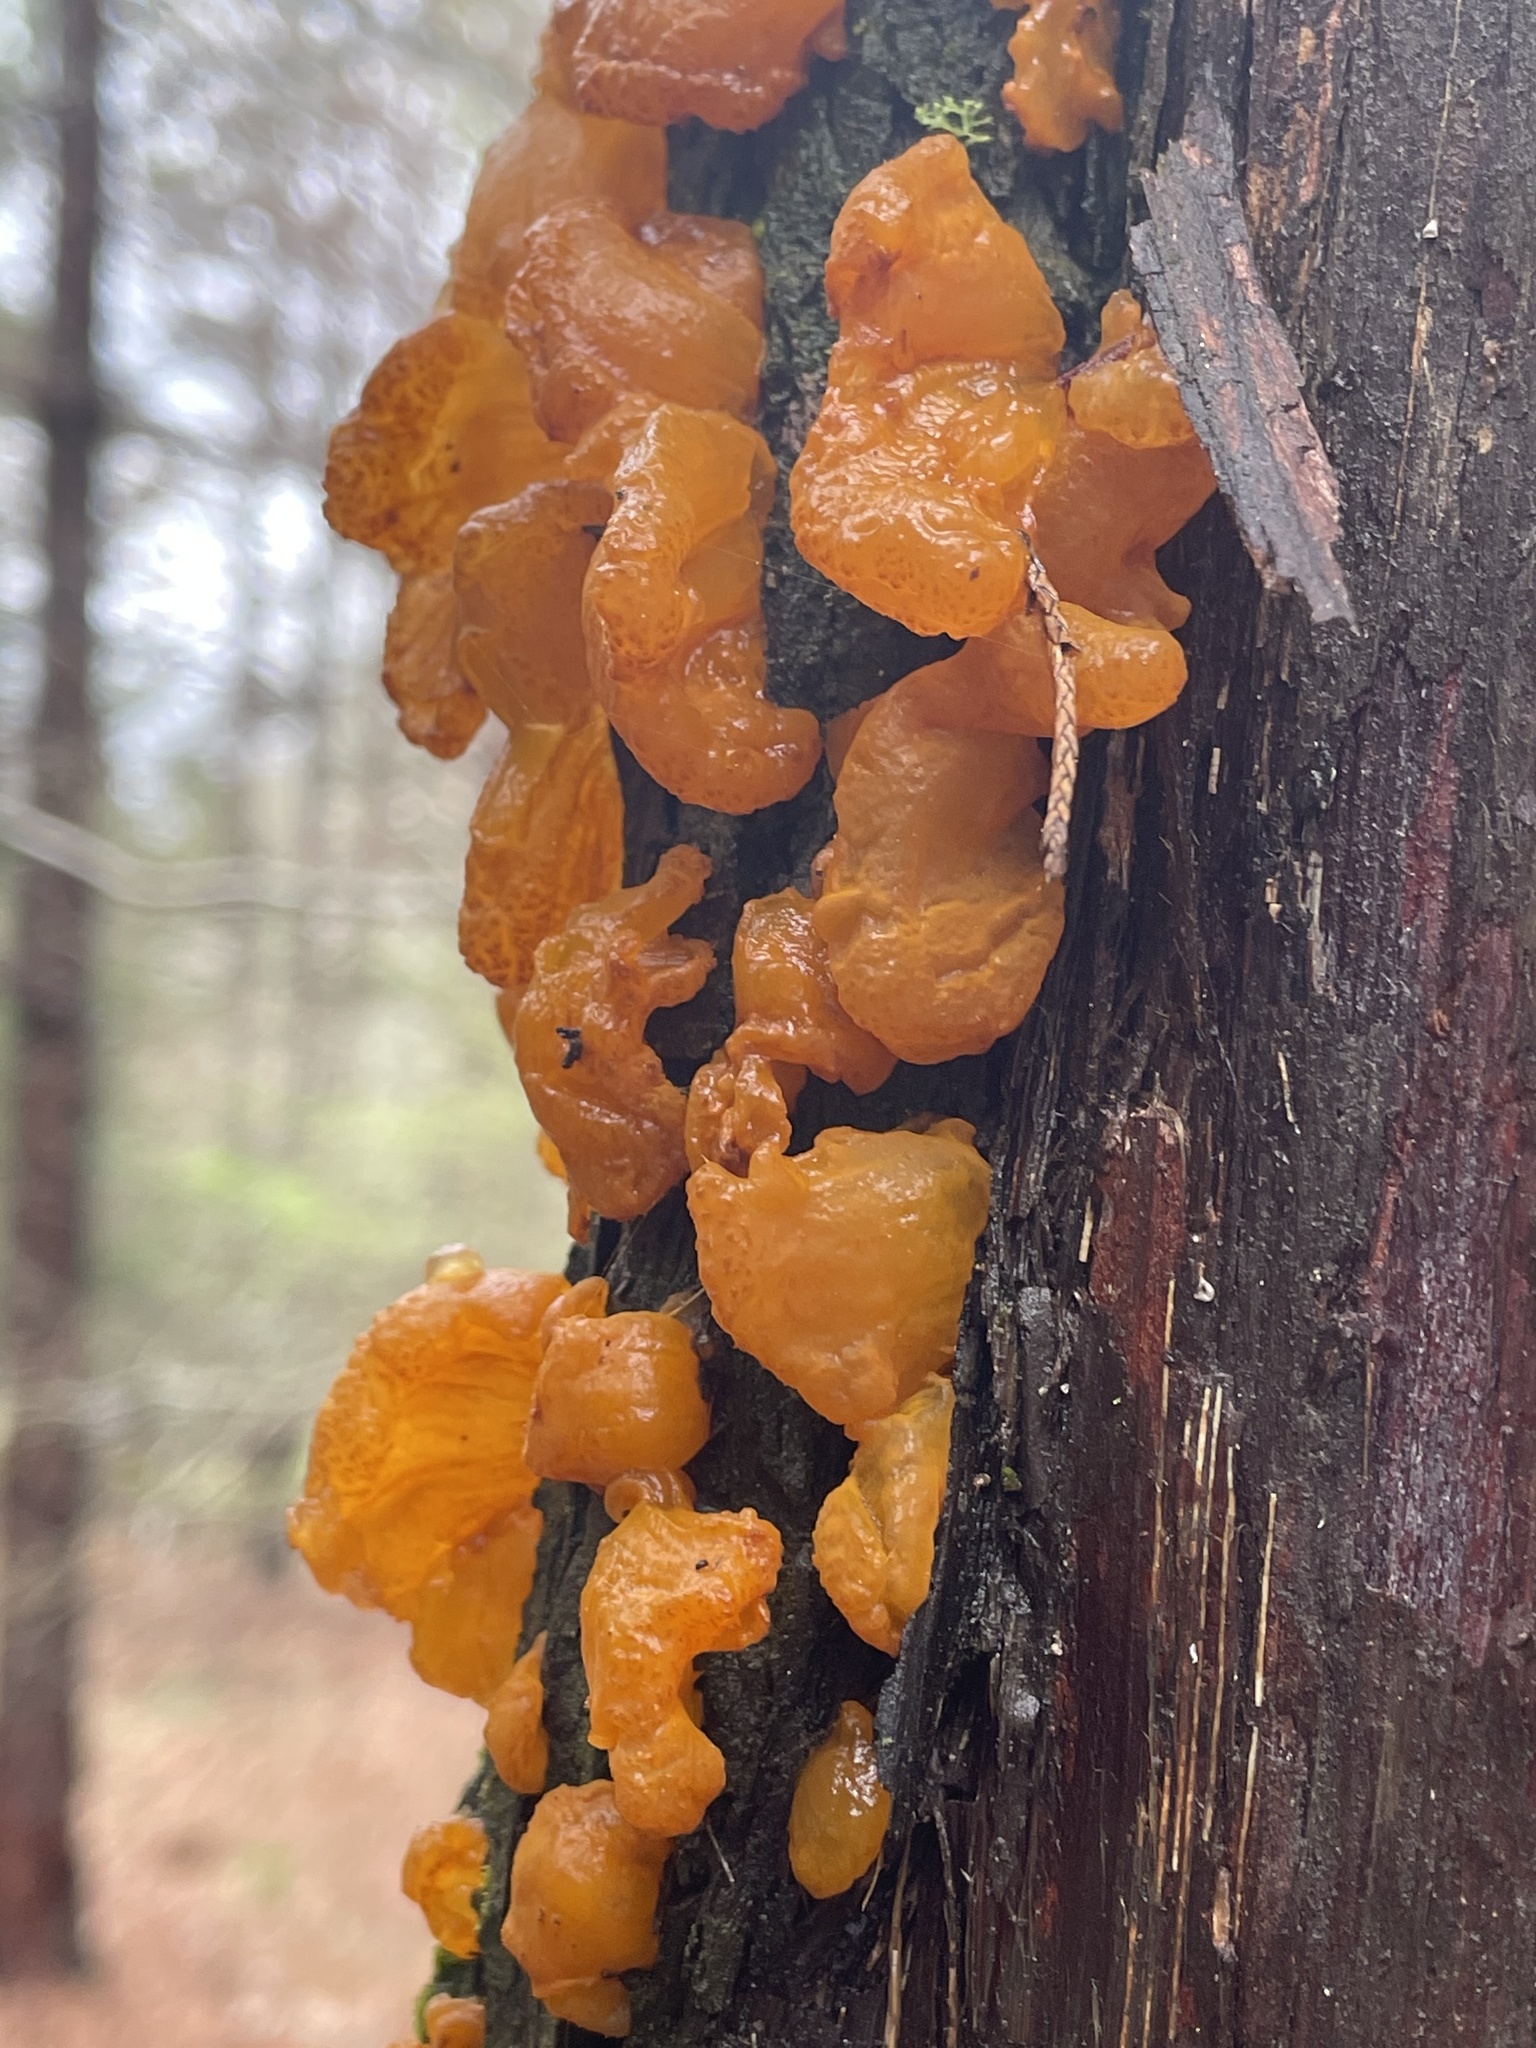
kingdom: Fungi
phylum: Basidiomycota
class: Pucciniomycetes
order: Pucciniales
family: Gymnosporangiaceae
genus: Gymnosporangium
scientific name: Gymnosporangium clavipes
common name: Quince rust
